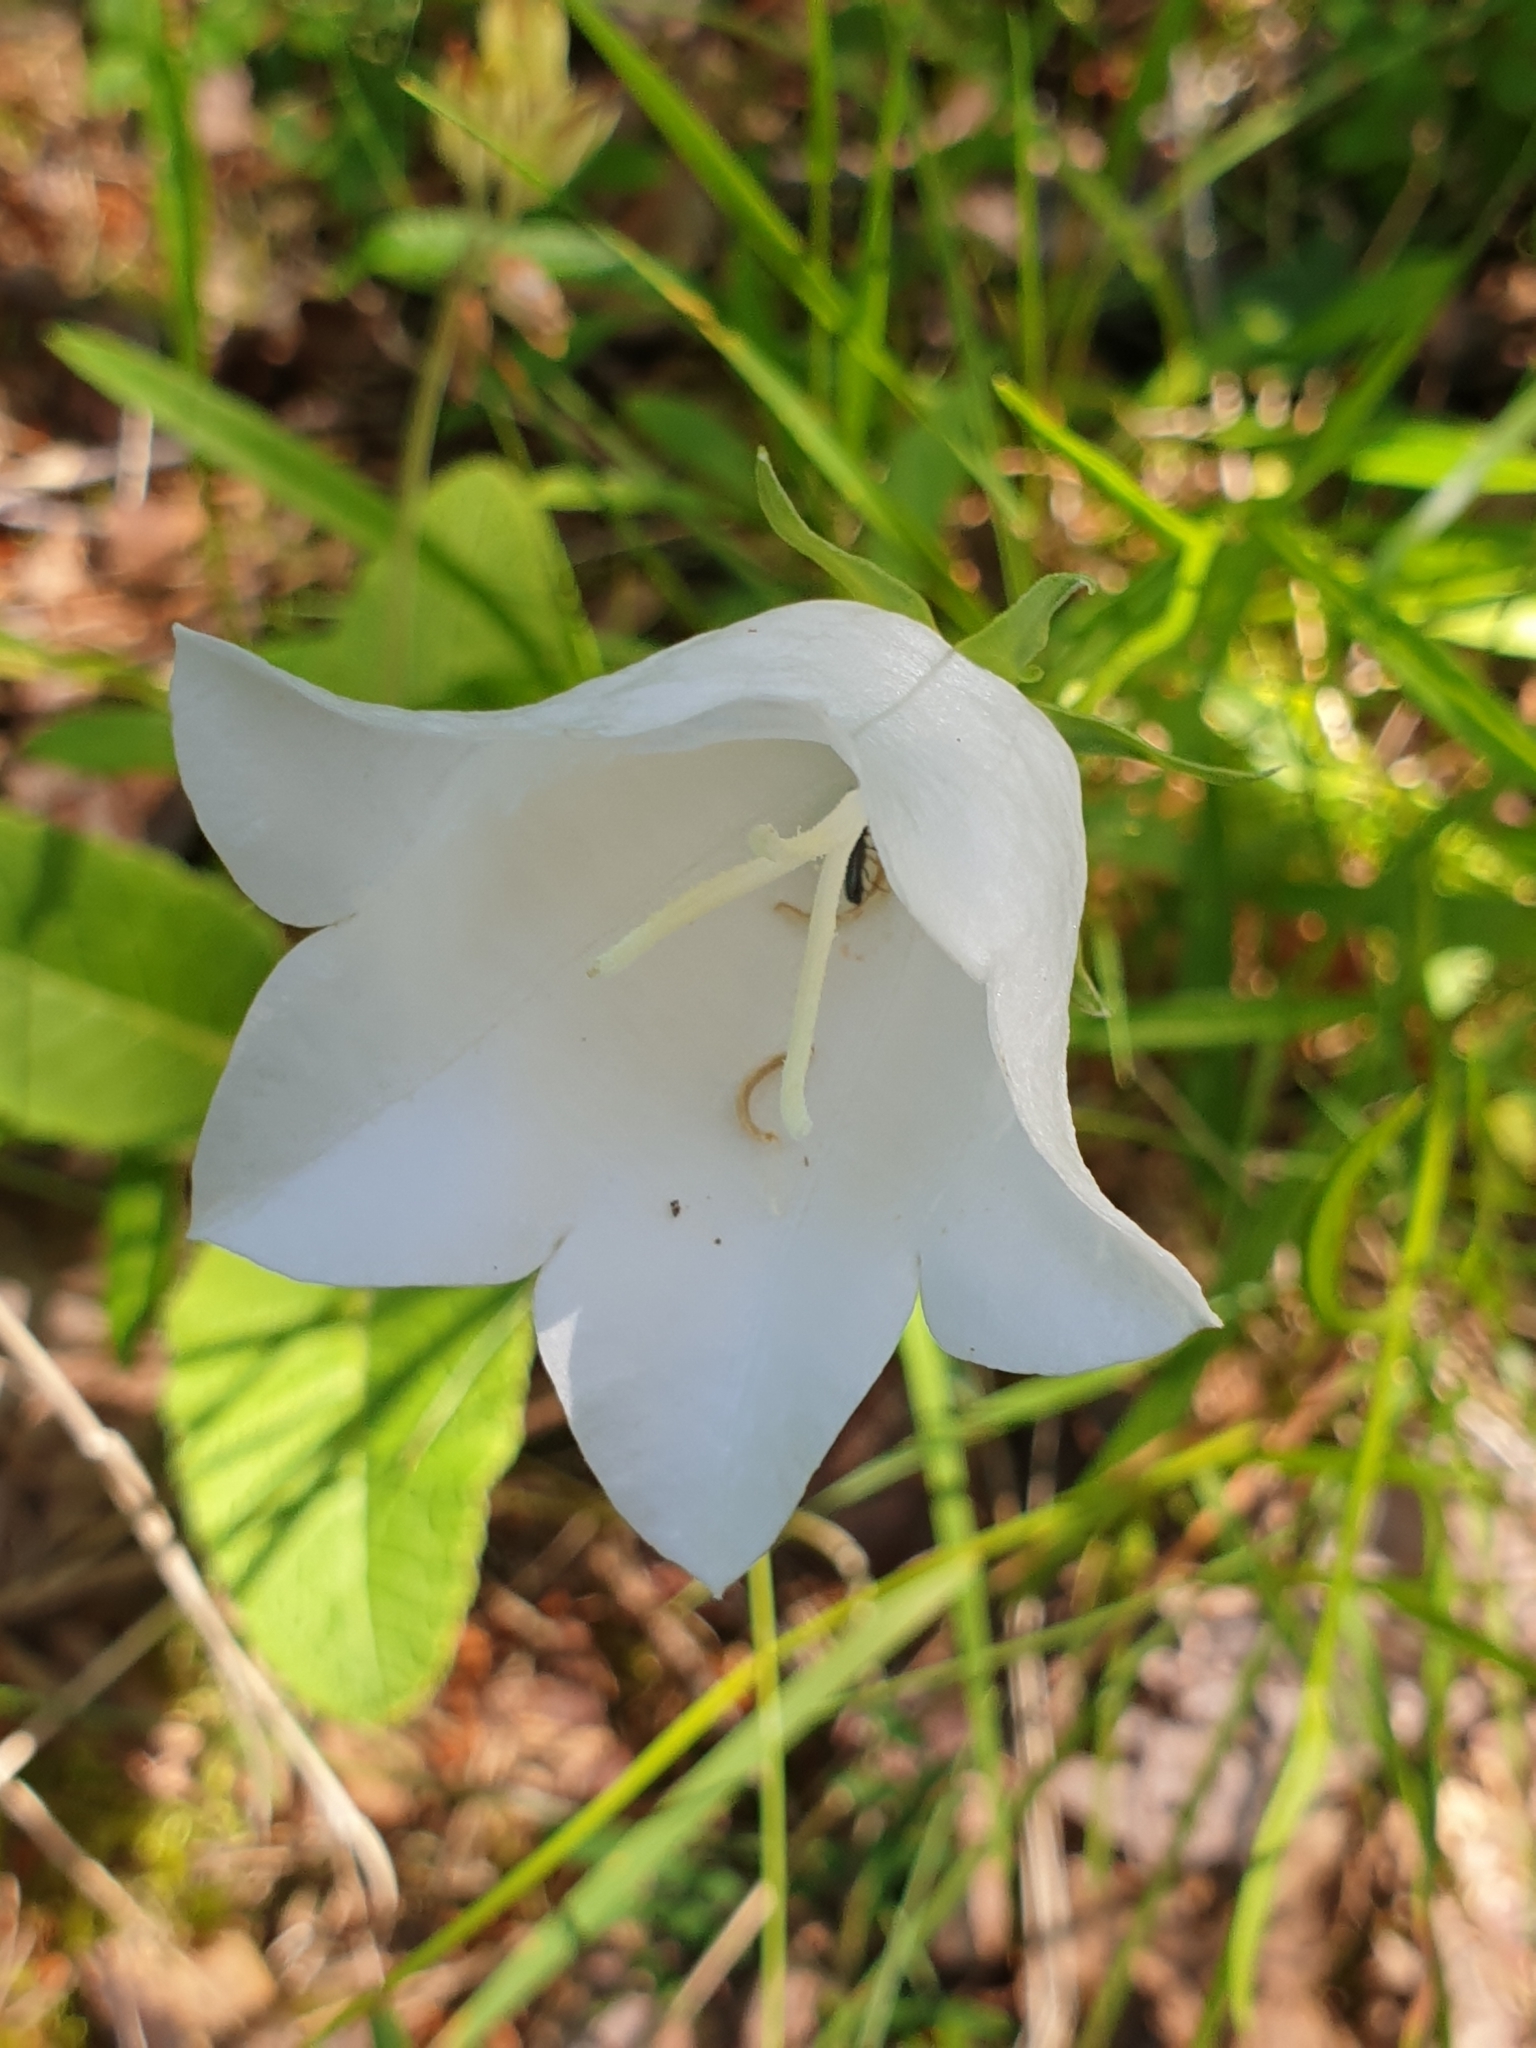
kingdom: Plantae
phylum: Tracheophyta
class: Magnoliopsida
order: Asterales
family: Campanulaceae
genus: Campanula
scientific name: Campanula persicifolia
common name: Peach-leaved bellflower
